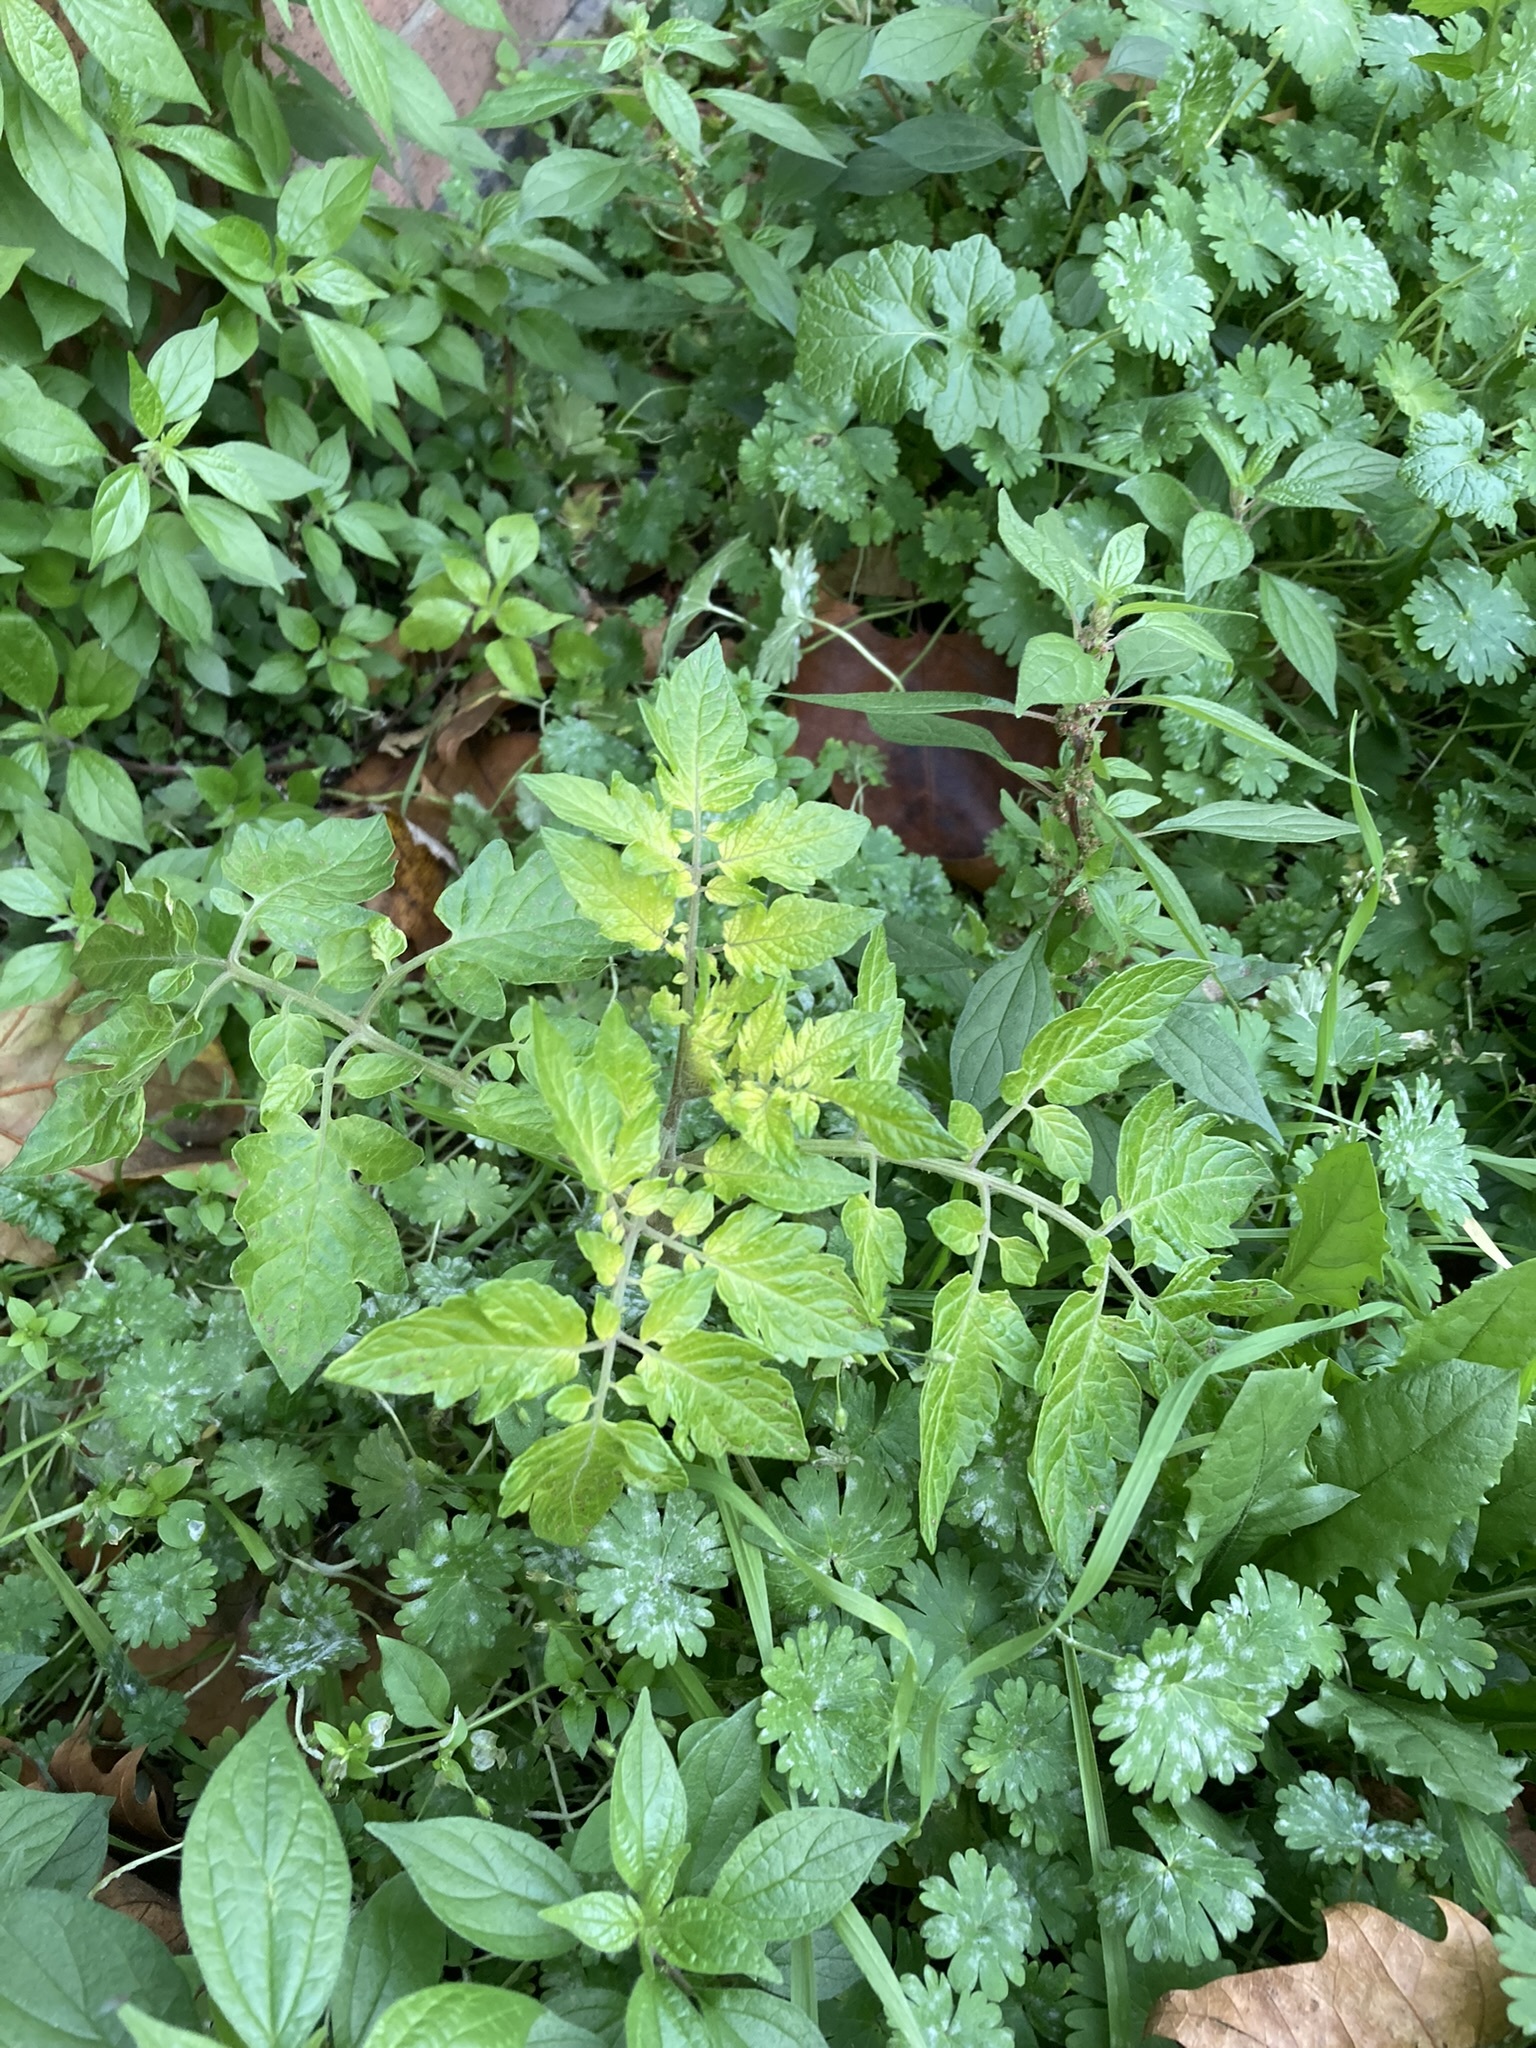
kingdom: Plantae
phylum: Tracheophyta
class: Magnoliopsida
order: Solanales
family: Solanaceae
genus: Solanum
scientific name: Solanum lycopersicum
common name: Garden tomato
